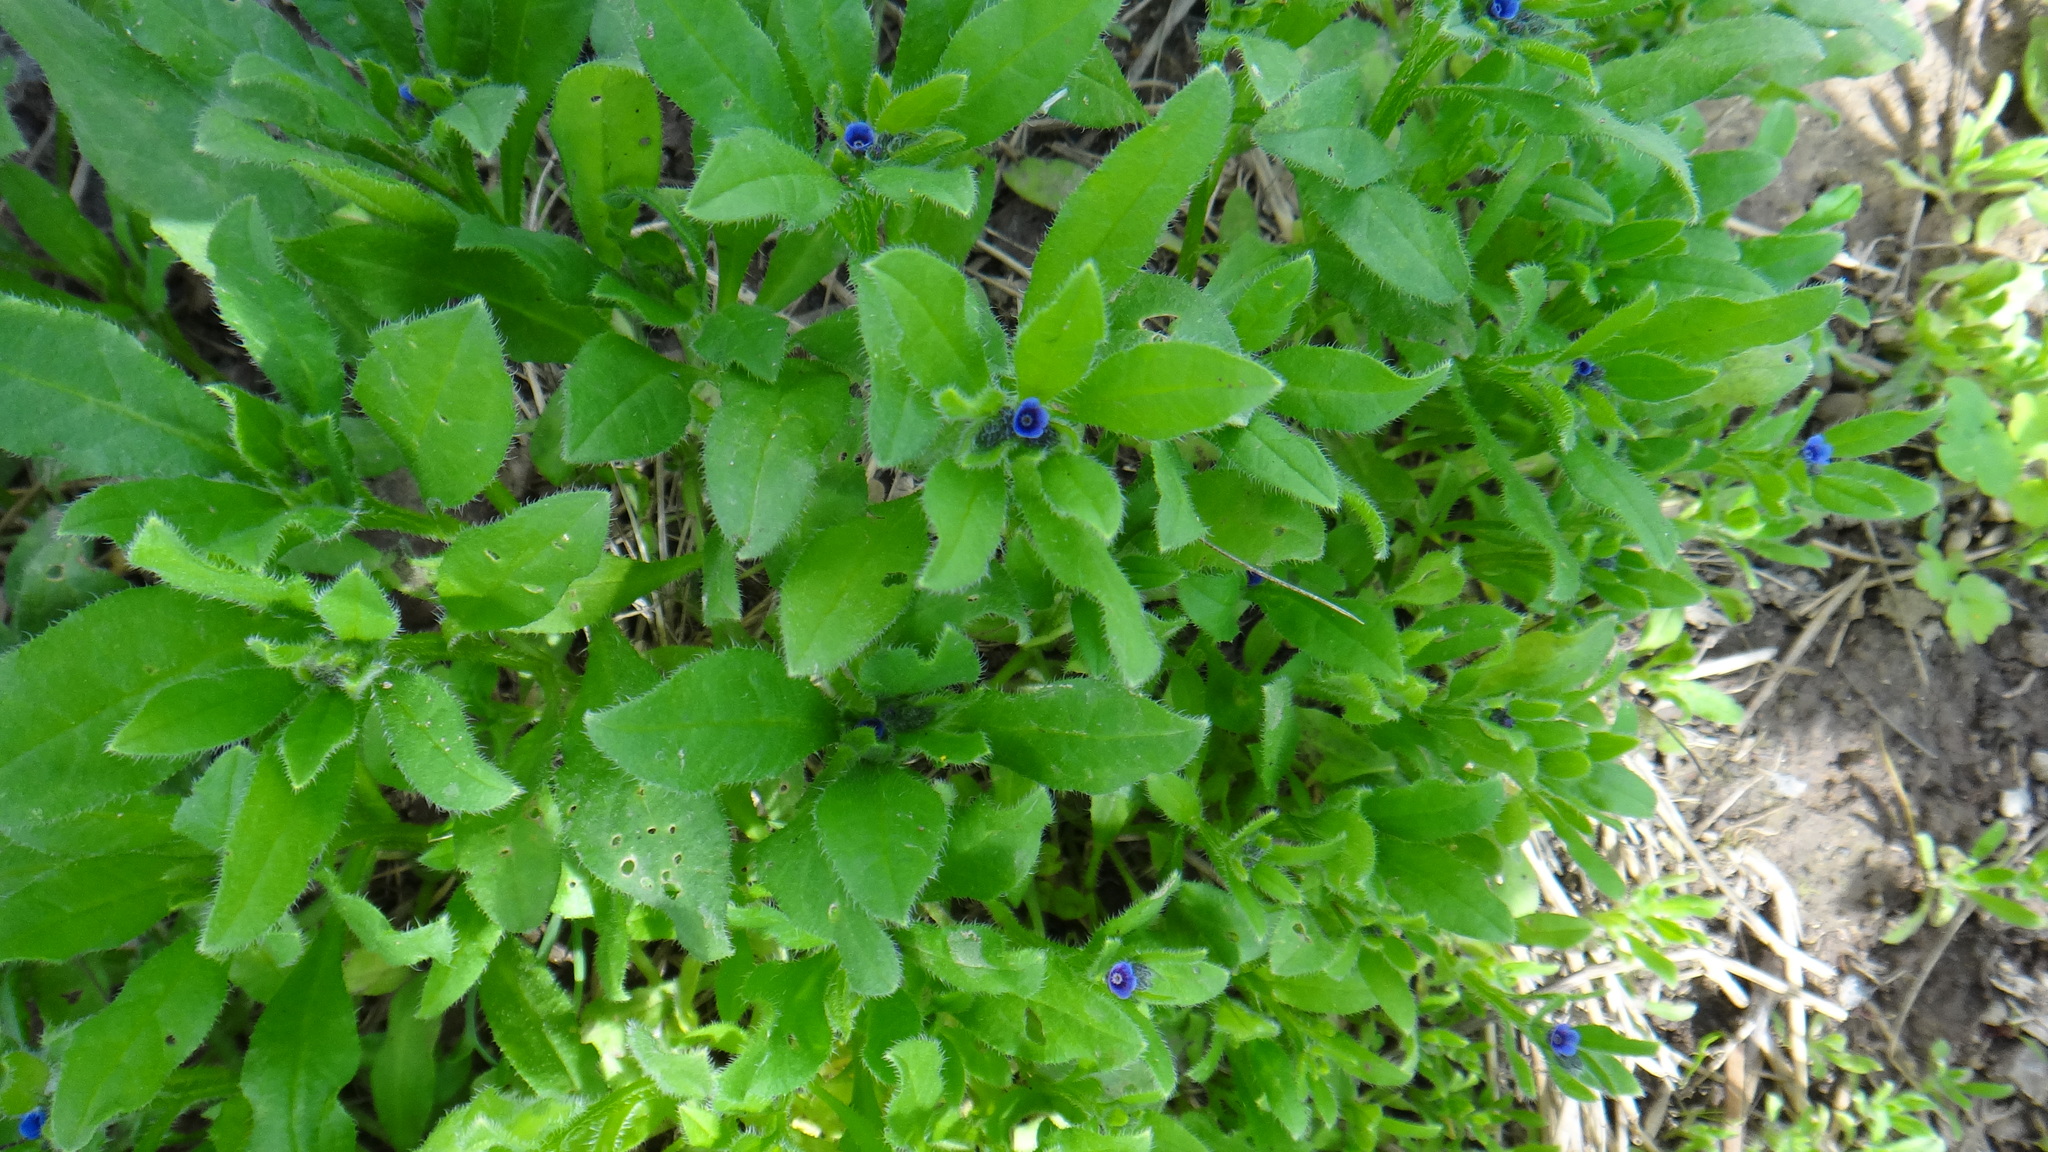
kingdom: Plantae
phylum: Tracheophyta
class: Magnoliopsida
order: Boraginales
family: Boraginaceae
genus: Asperugo
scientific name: Asperugo procumbens
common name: Madwort
